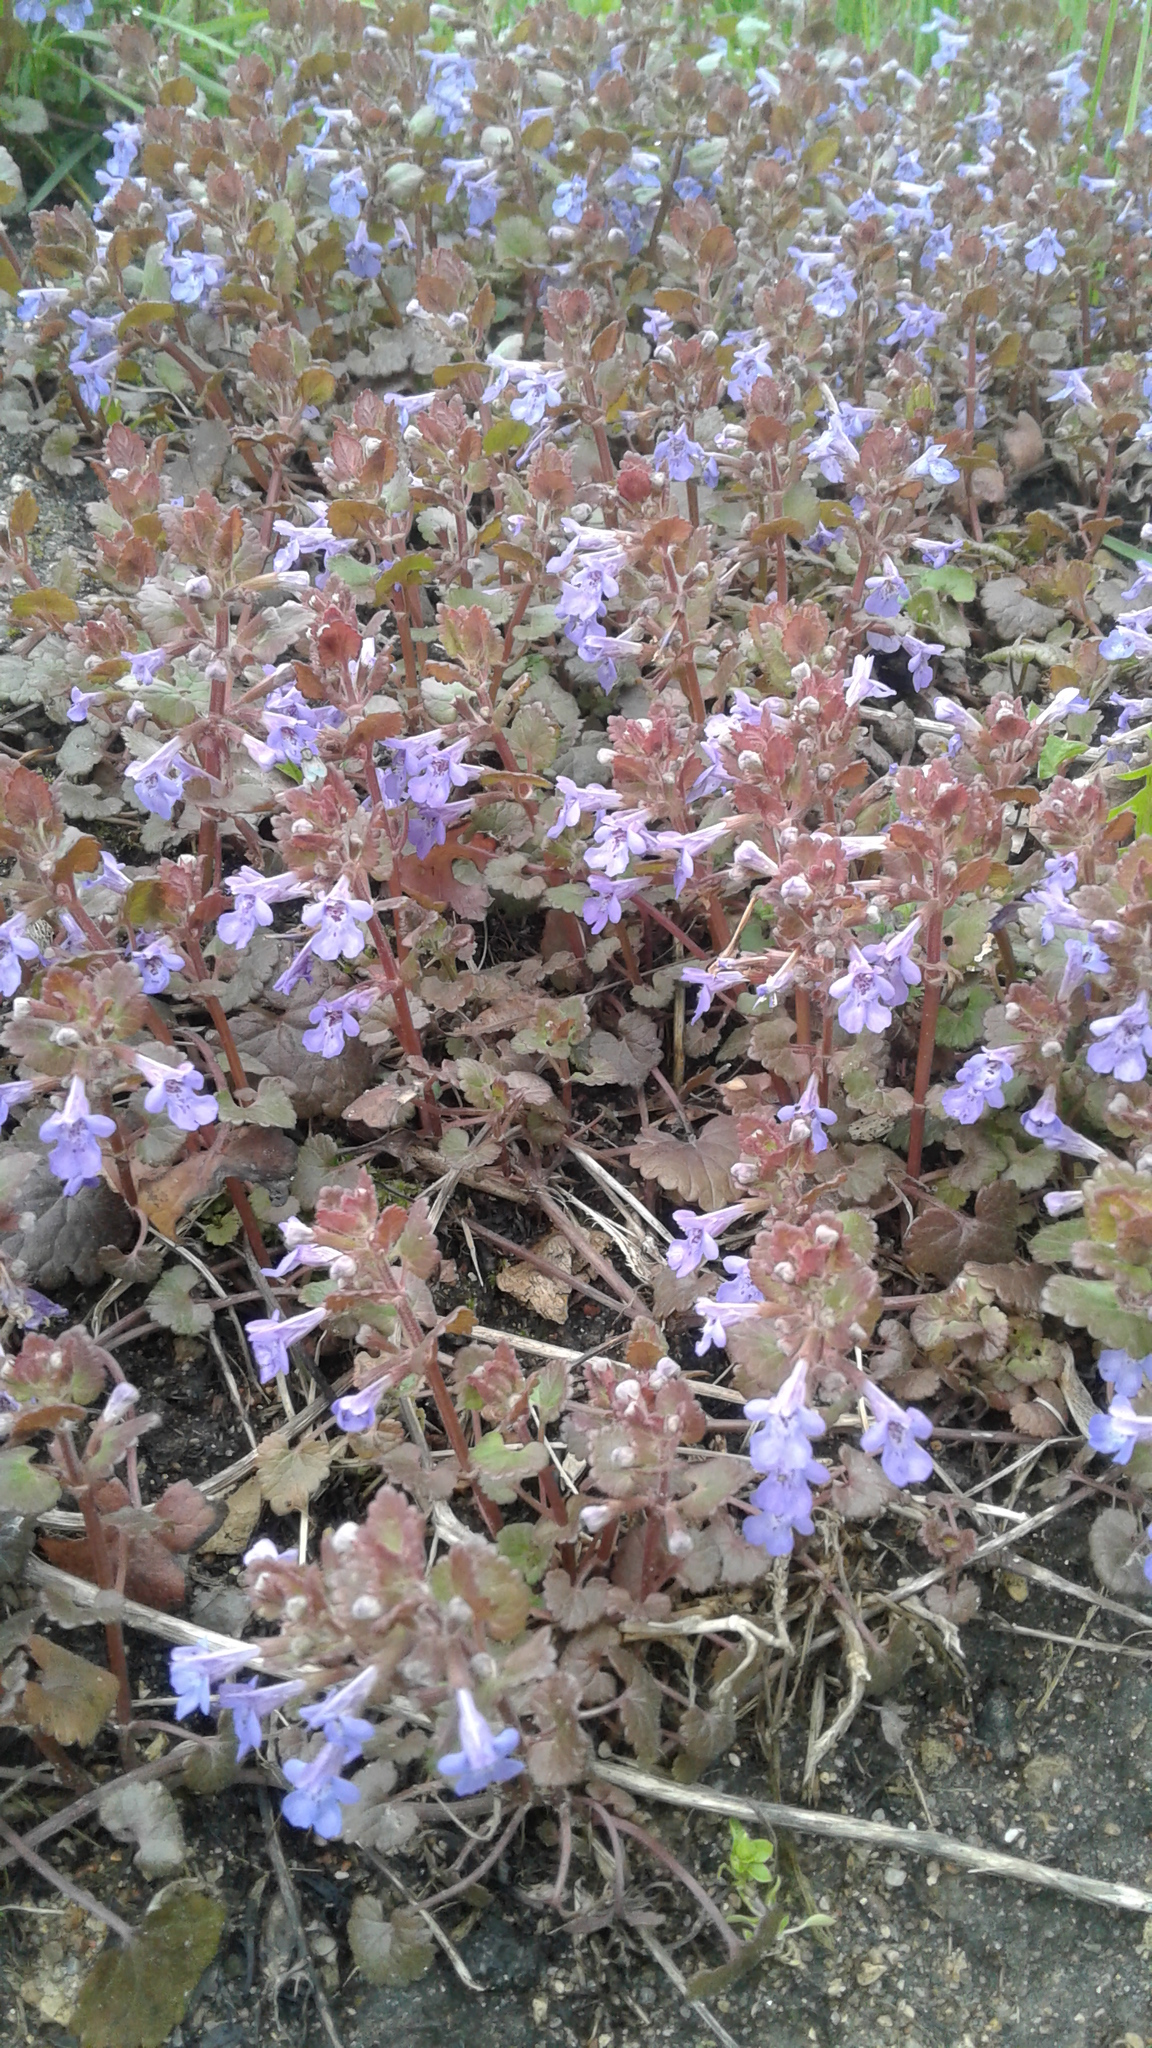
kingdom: Plantae
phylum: Tracheophyta
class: Magnoliopsida
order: Lamiales
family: Lamiaceae
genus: Glechoma
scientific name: Glechoma hederacea
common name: Ground ivy
